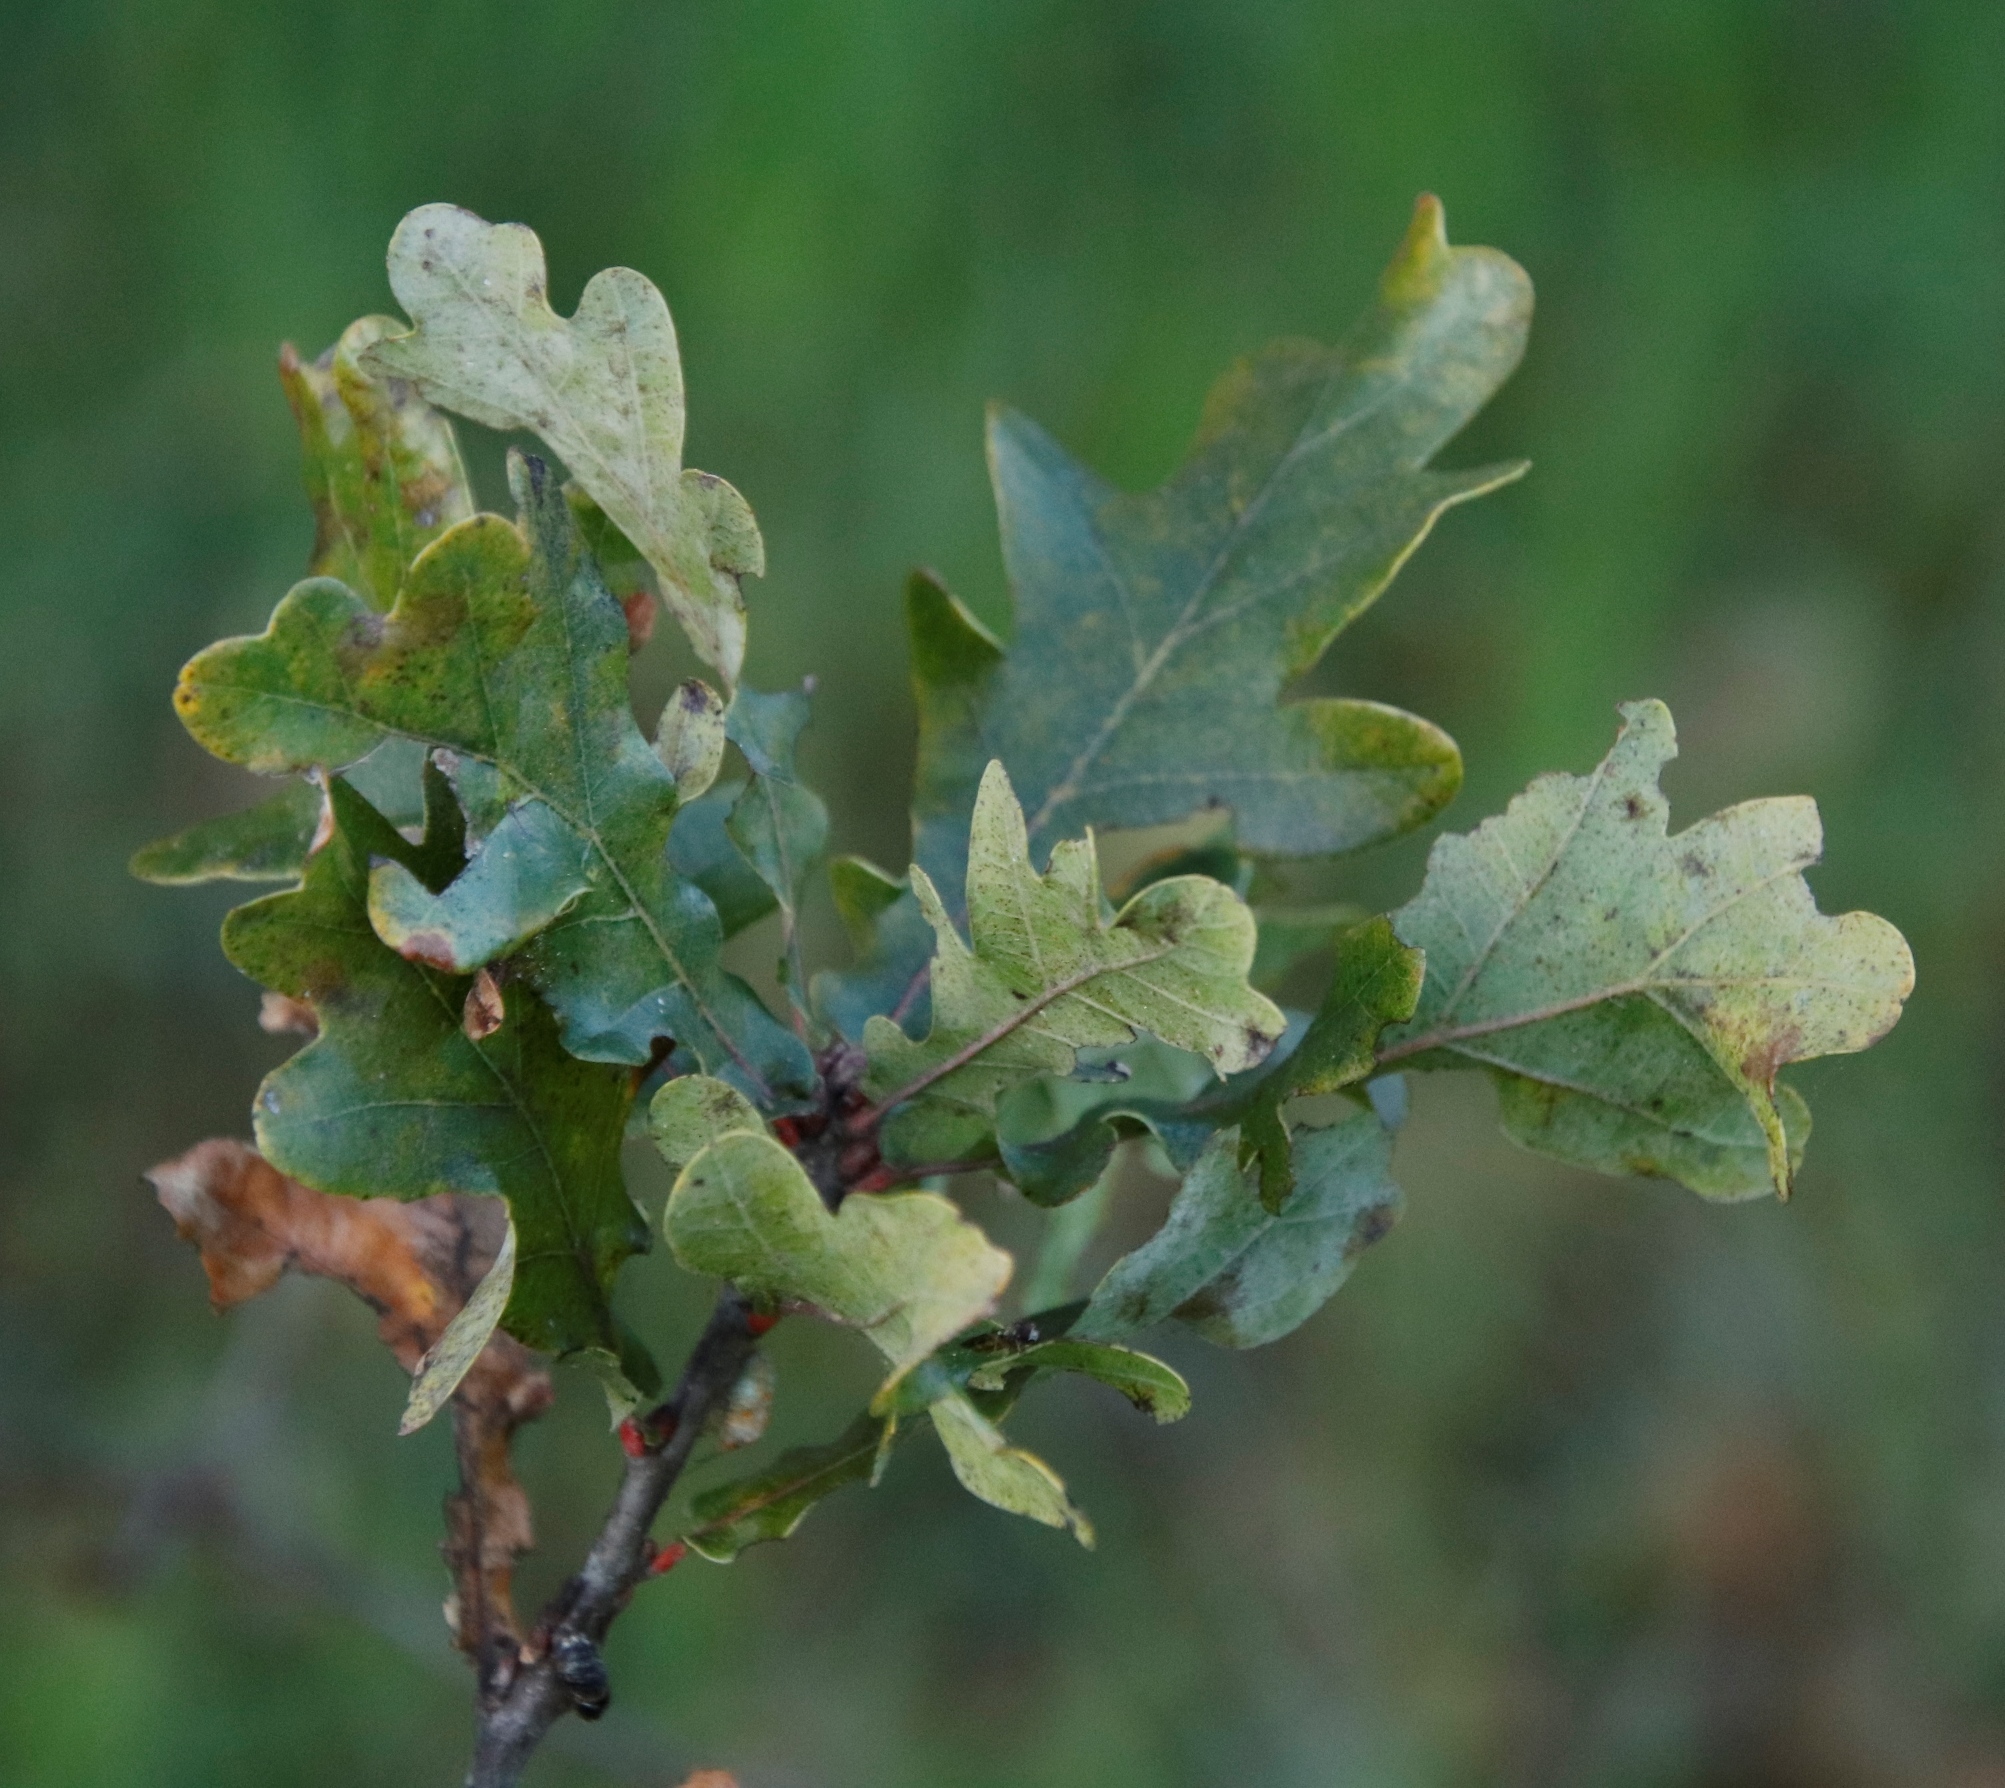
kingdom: Plantae
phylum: Tracheophyta
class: Magnoliopsida
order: Fagales
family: Fagaceae
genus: Quercus
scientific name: Quercus robur
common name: Pedunculate oak
